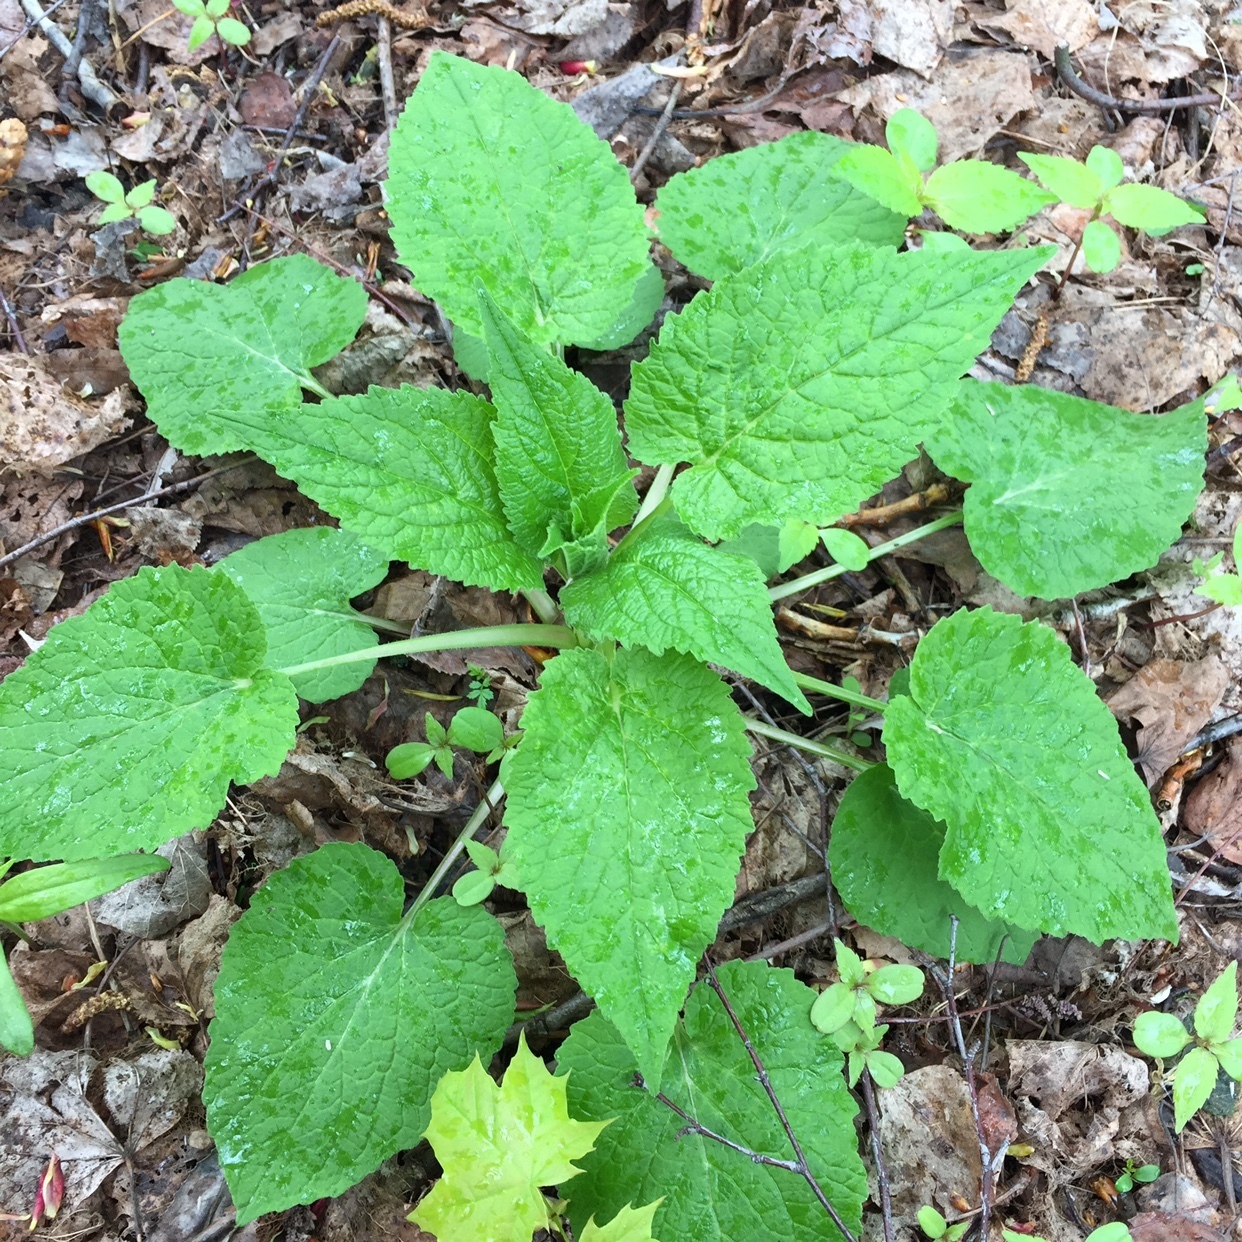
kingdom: Plantae
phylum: Tracheophyta
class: Magnoliopsida
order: Asterales
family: Campanulaceae
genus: Campanula
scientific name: Campanula latifolia
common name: Giant bellflower
